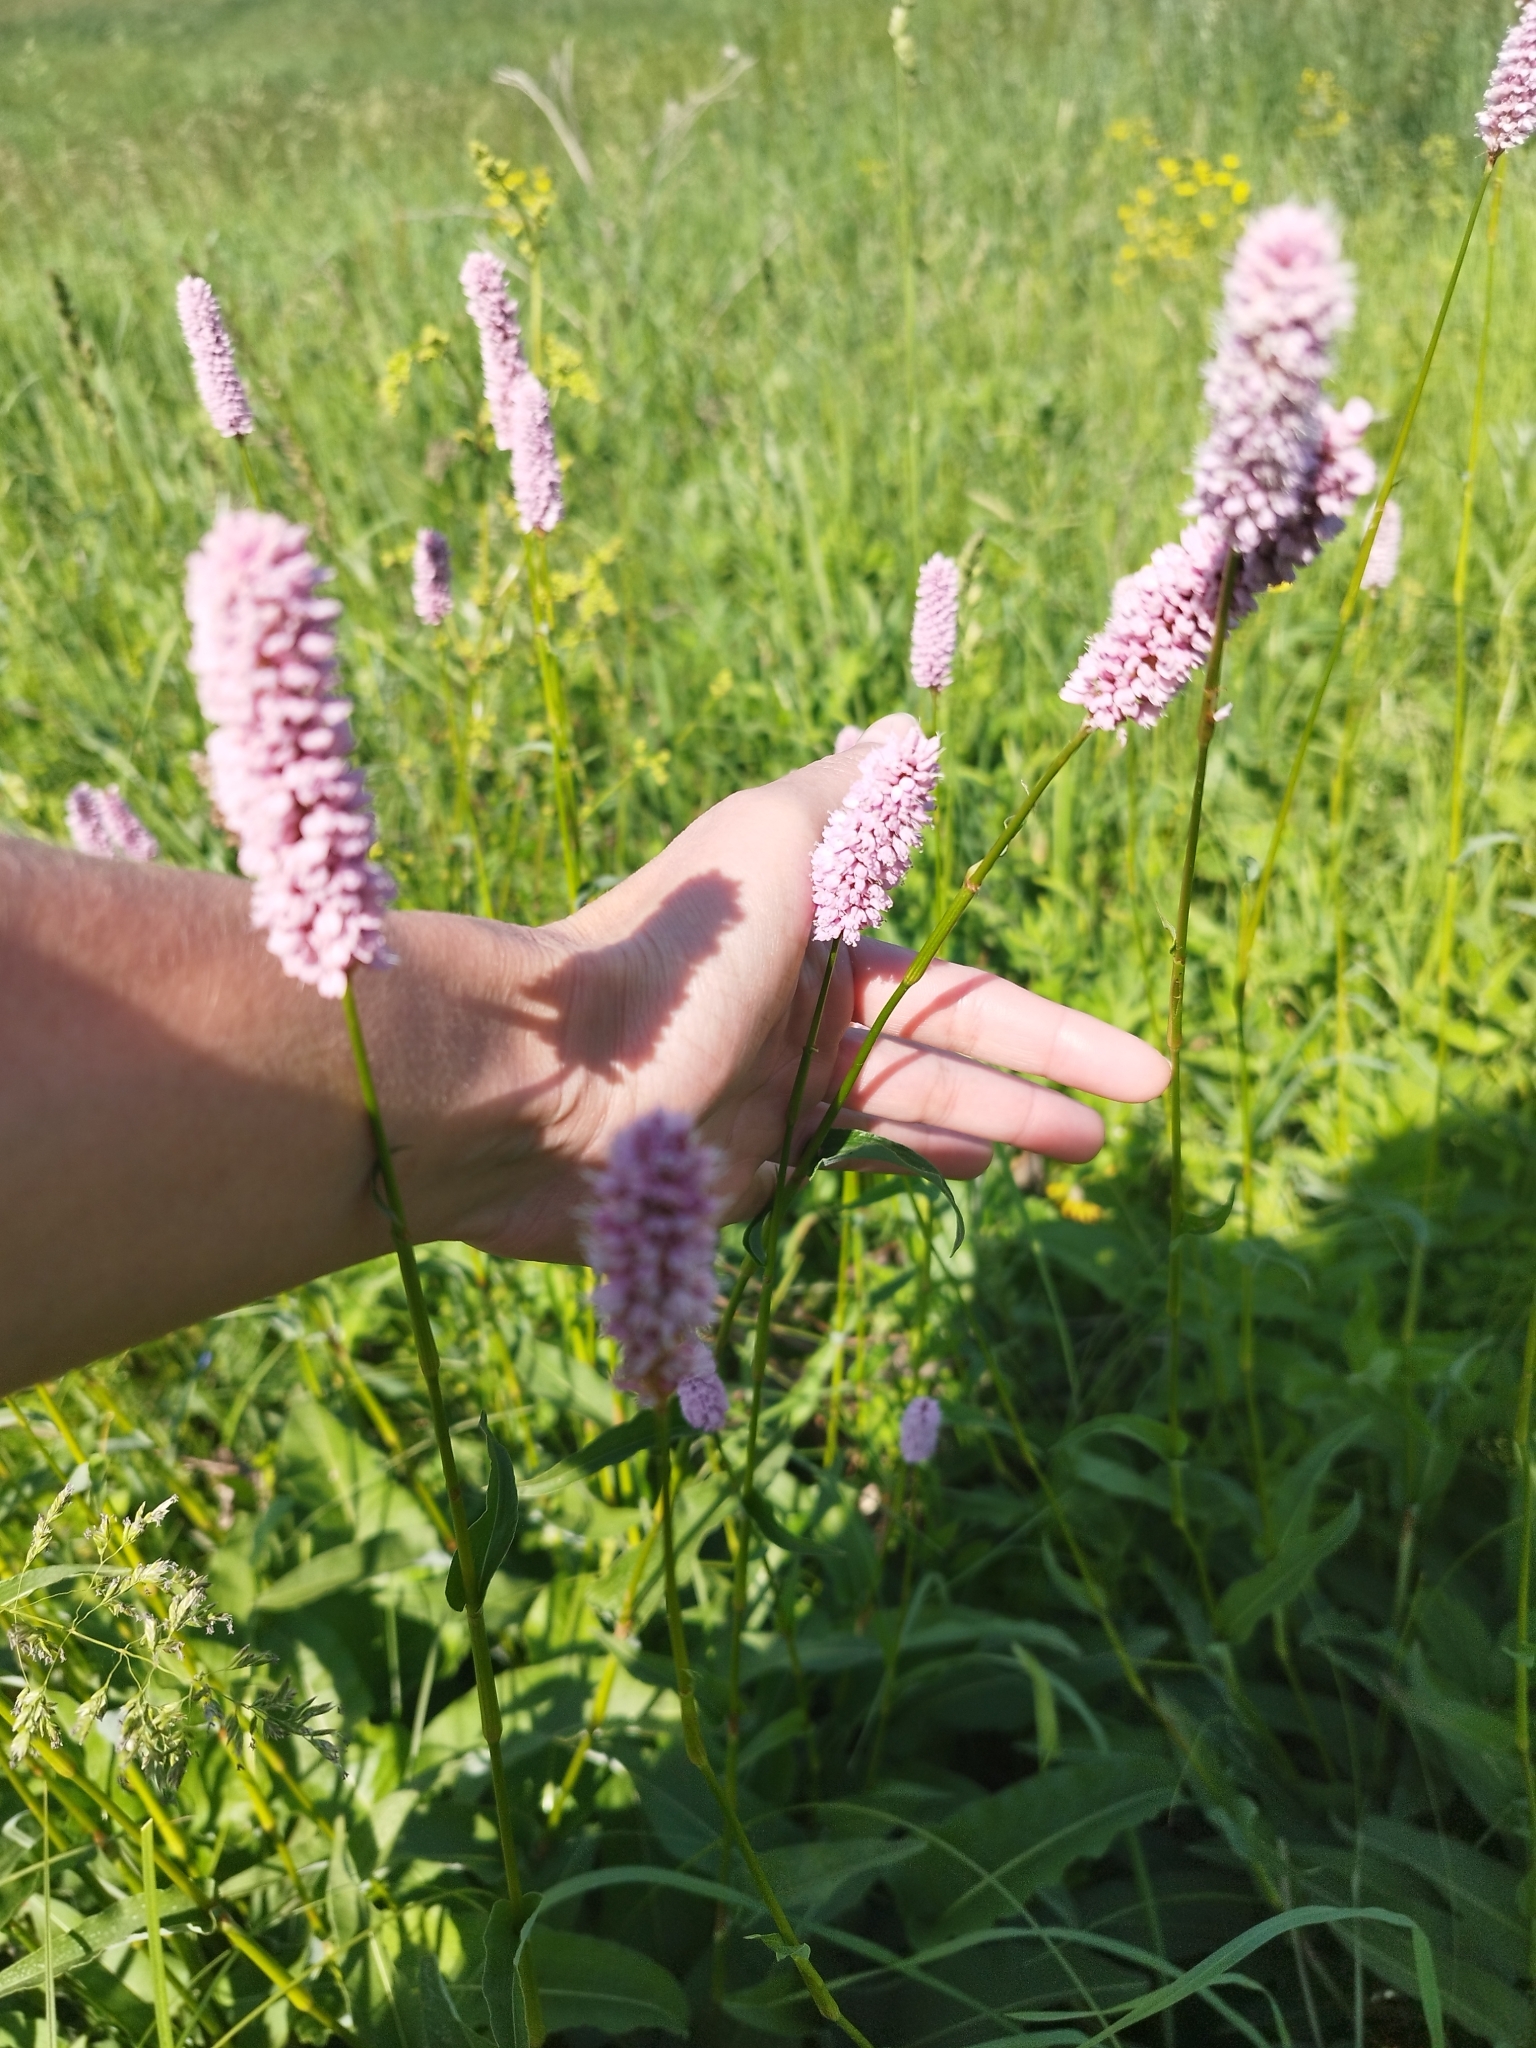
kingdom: Plantae
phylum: Tracheophyta
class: Magnoliopsida
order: Caryophyllales
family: Polygonaceae
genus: Bistorta
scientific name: Bistorta officinalis
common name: Common bistort
